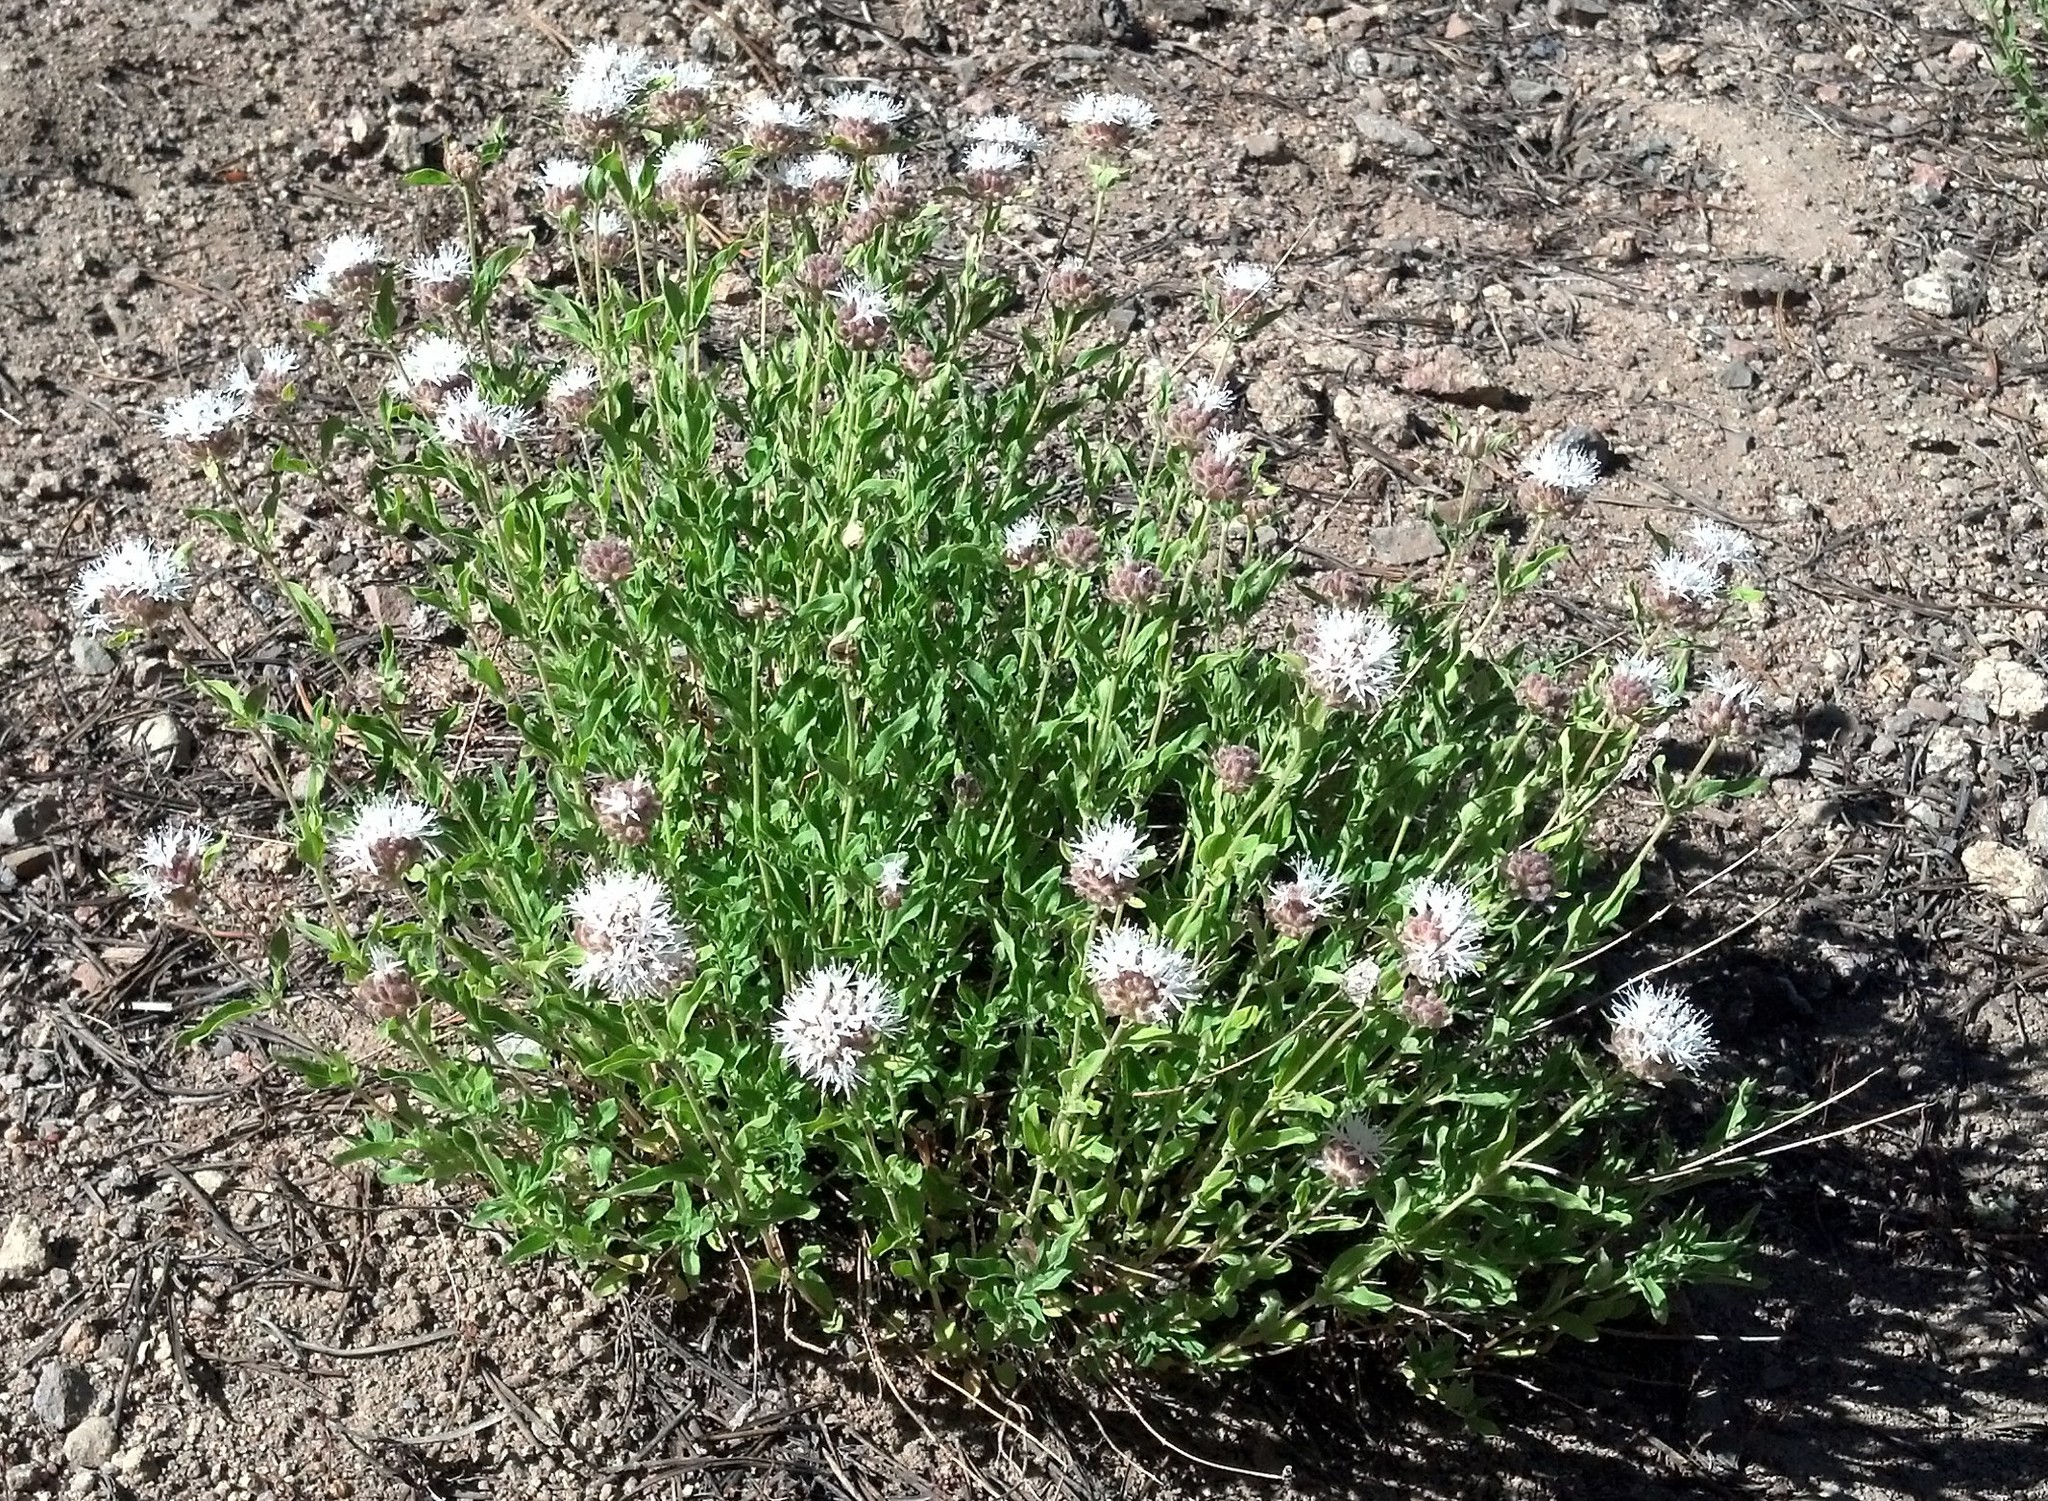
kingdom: Plantae
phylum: Tracheophyta
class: Magnoliopsida
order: Lamiales
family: Lamiaceae
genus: Monardella
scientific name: Monardella odoratissima
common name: Pacific monardella
